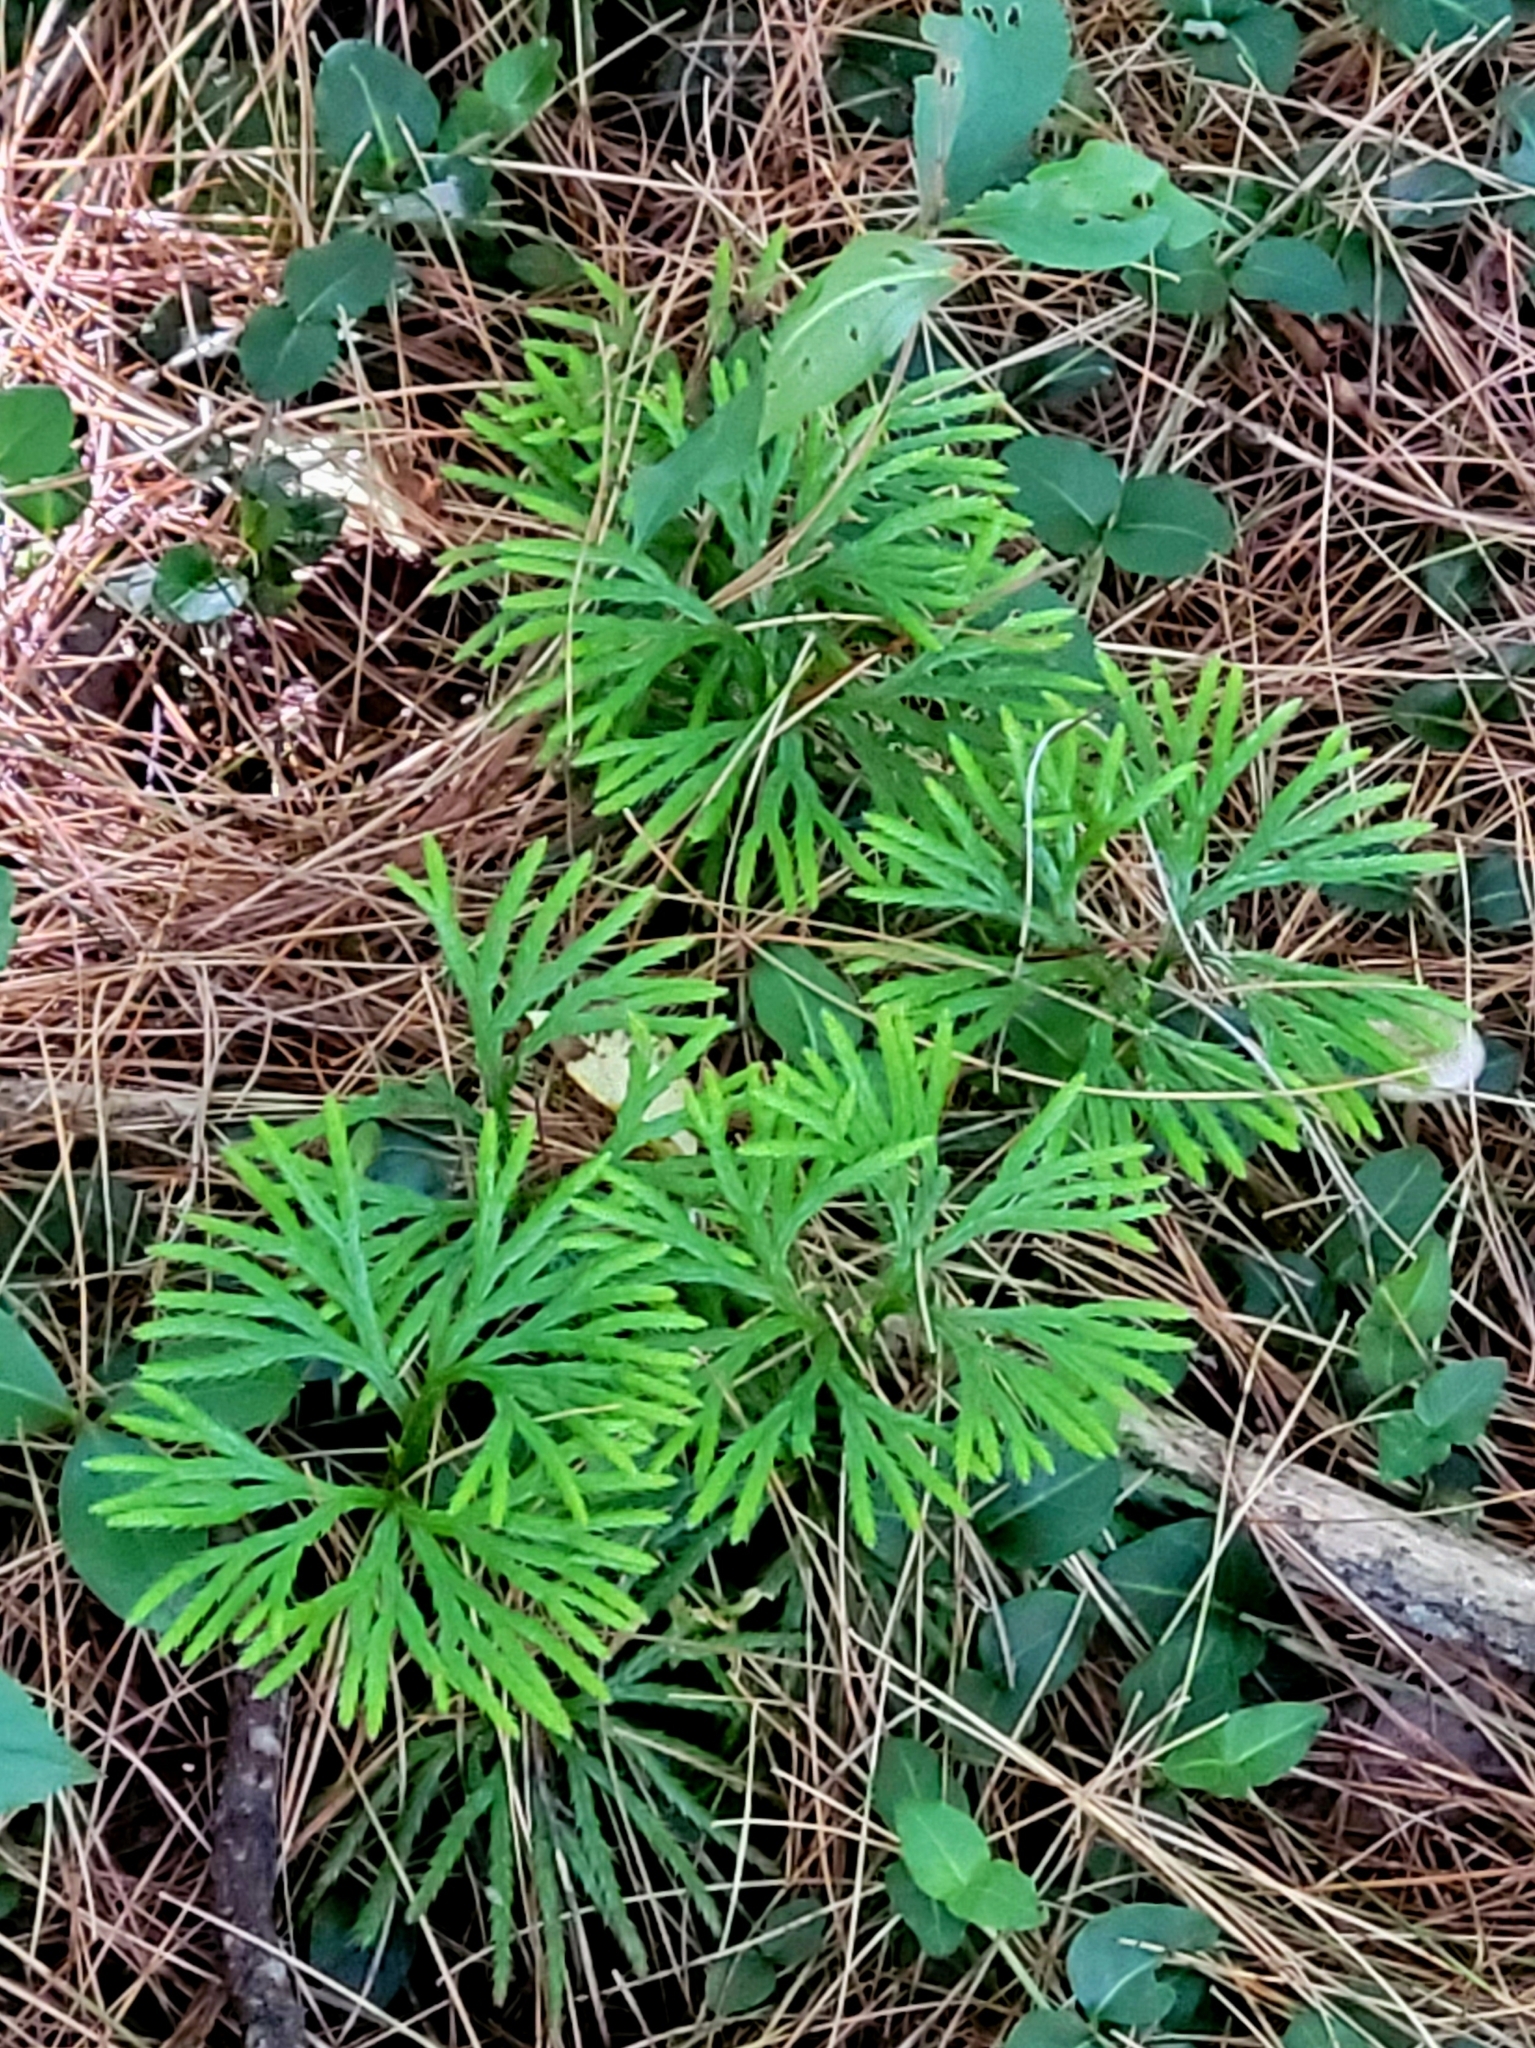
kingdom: Plantae
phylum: Tracheophyta
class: Lycopodiopsida
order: Lycopodiales
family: Lycopodiaceae
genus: Diphasiastrum
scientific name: Diphasiastrum digitatum
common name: Southern running-pine
